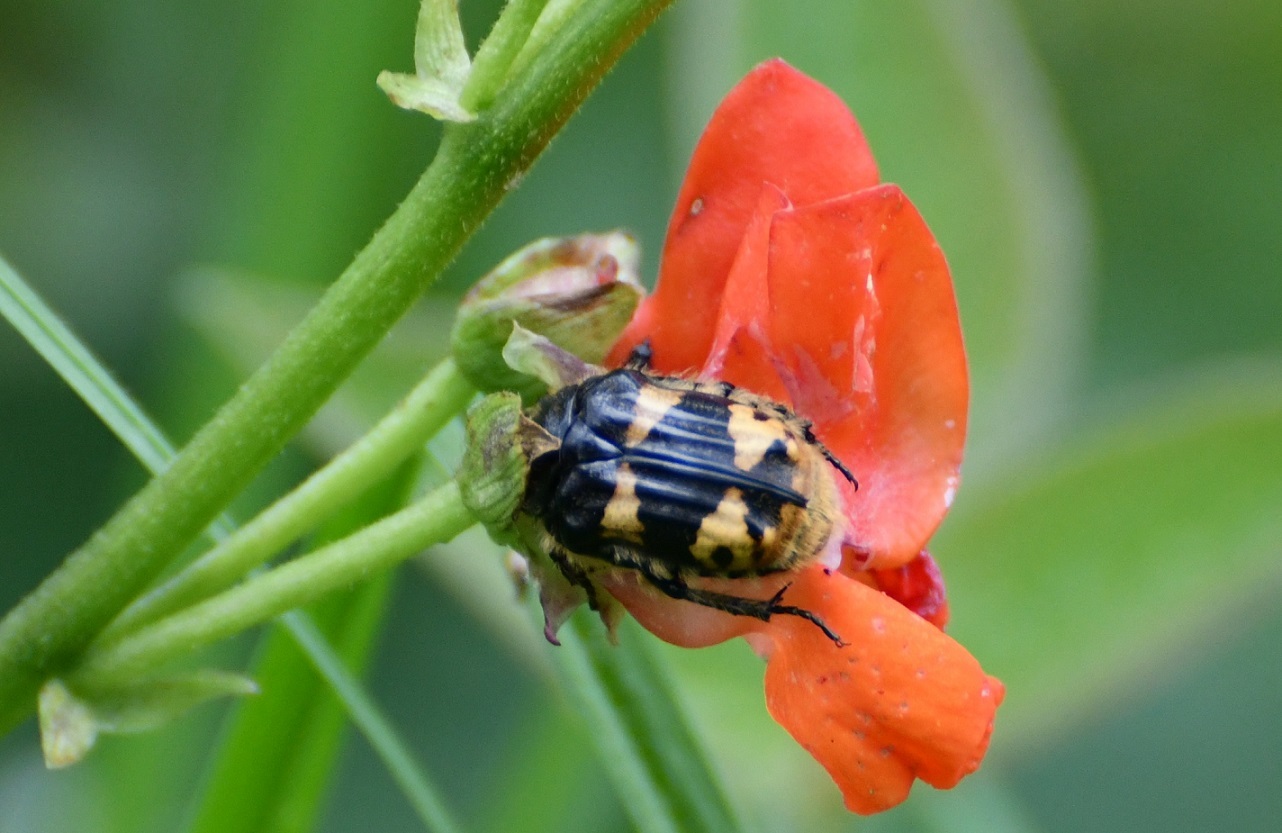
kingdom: Animalia
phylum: Arthropoda
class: Insecta
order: Coleoptera
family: Scarabaeidae
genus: Euphoria
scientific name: Euphoria basalis
